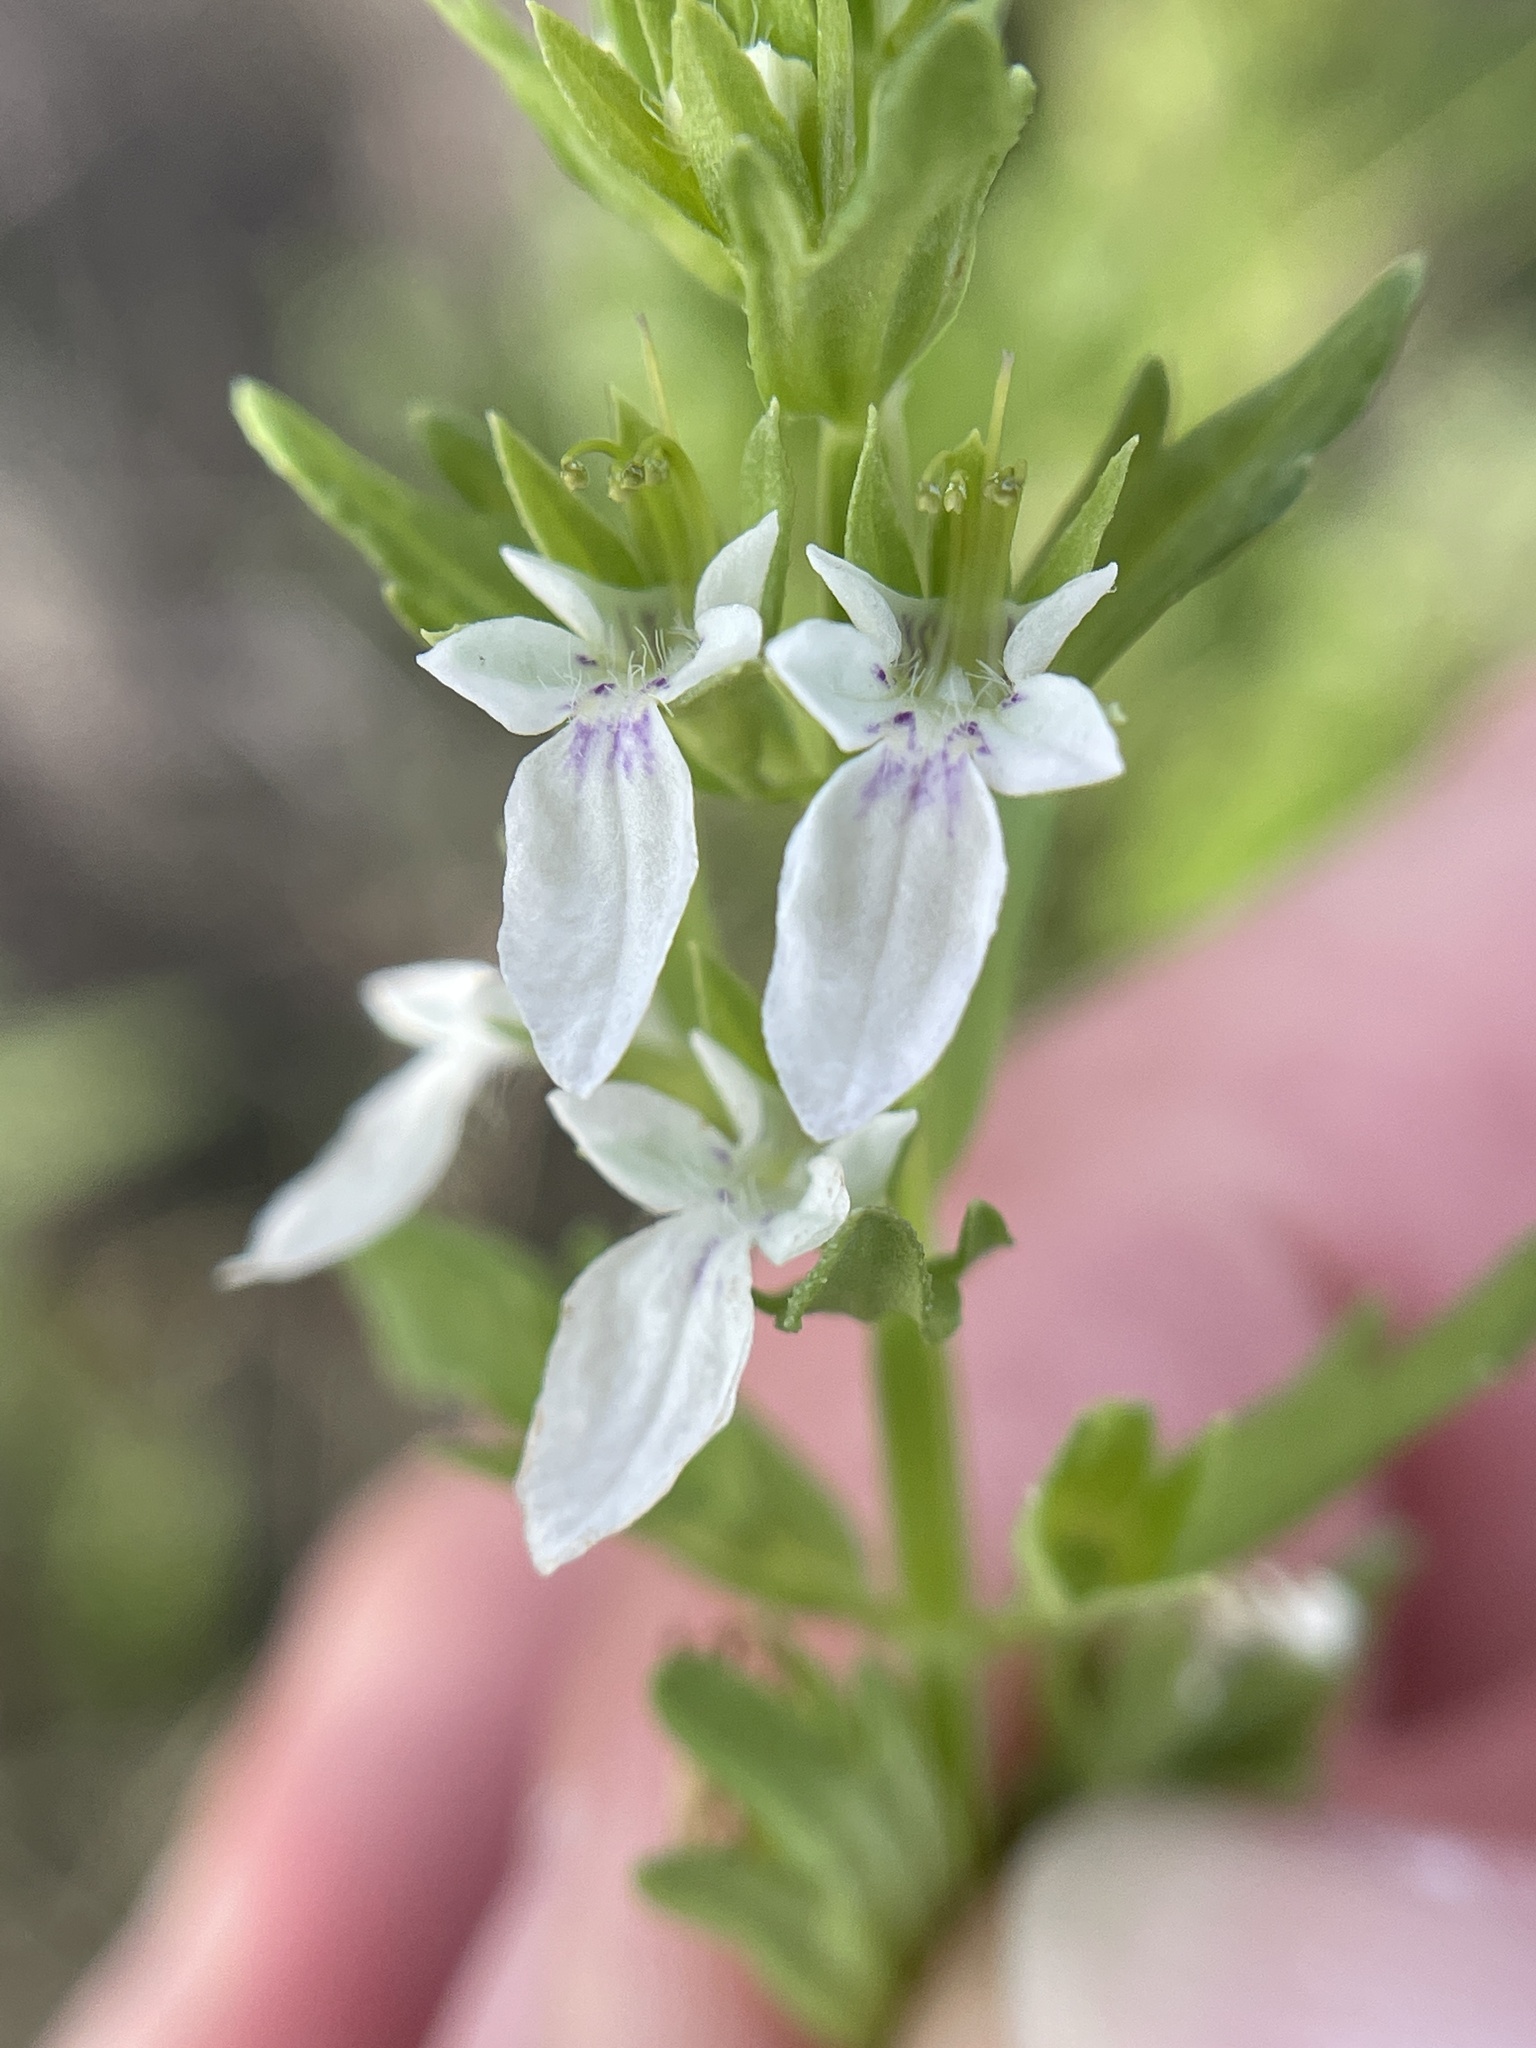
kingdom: Plantae
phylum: Tracheophyta
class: Magnoliopsida
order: Lamiales
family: Lamiaceae
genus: Teucrium
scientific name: Teucrium cubense
